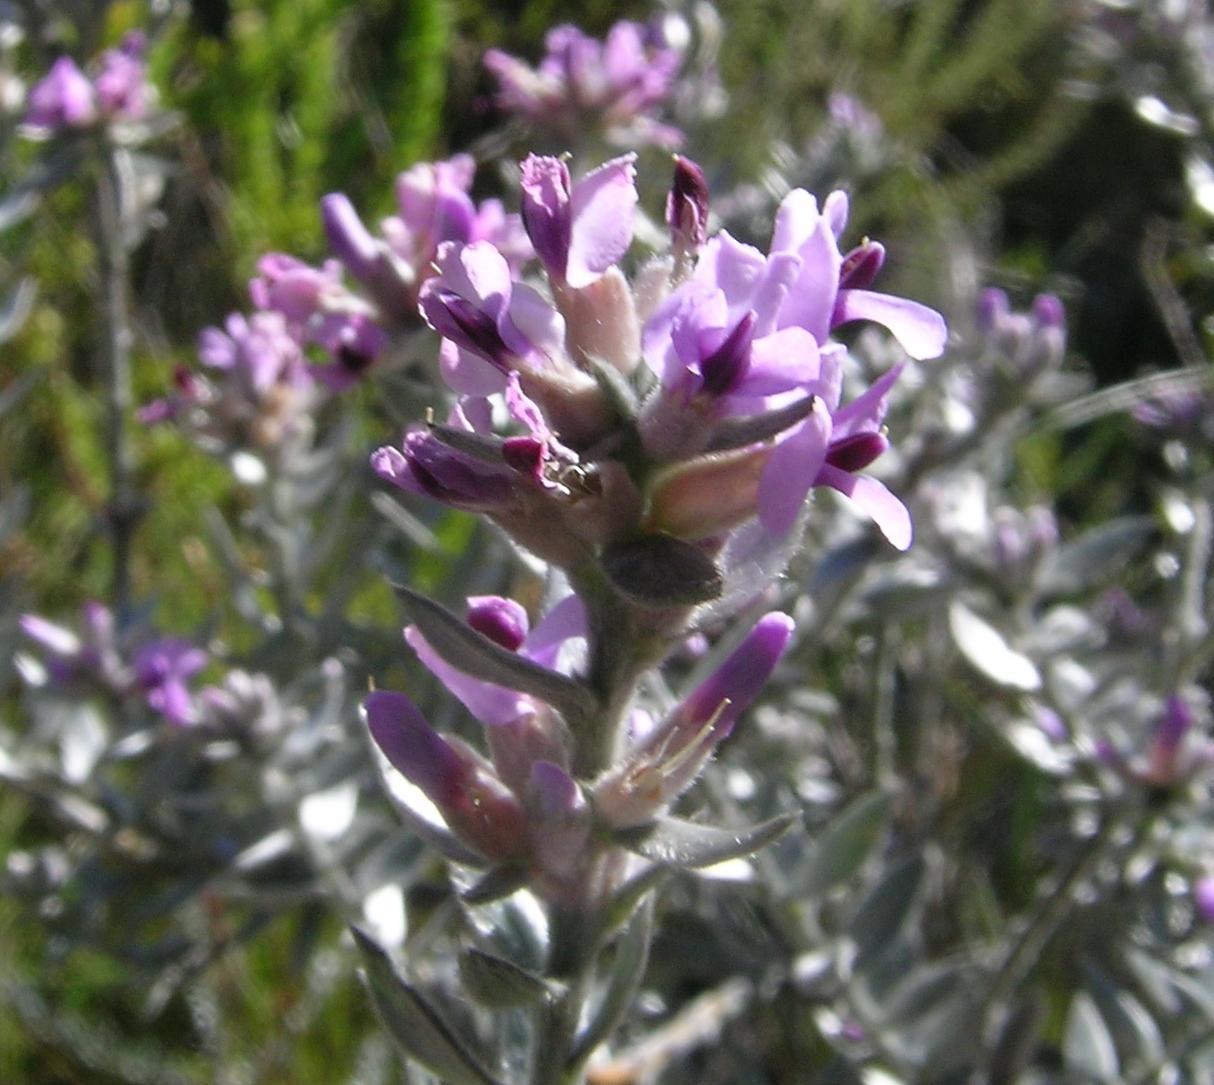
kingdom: Plantae
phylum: Tracheophyta
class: Magnoliopsida
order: Fabales
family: Fabaceae
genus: Amphithalea
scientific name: Amphithalea violacea
